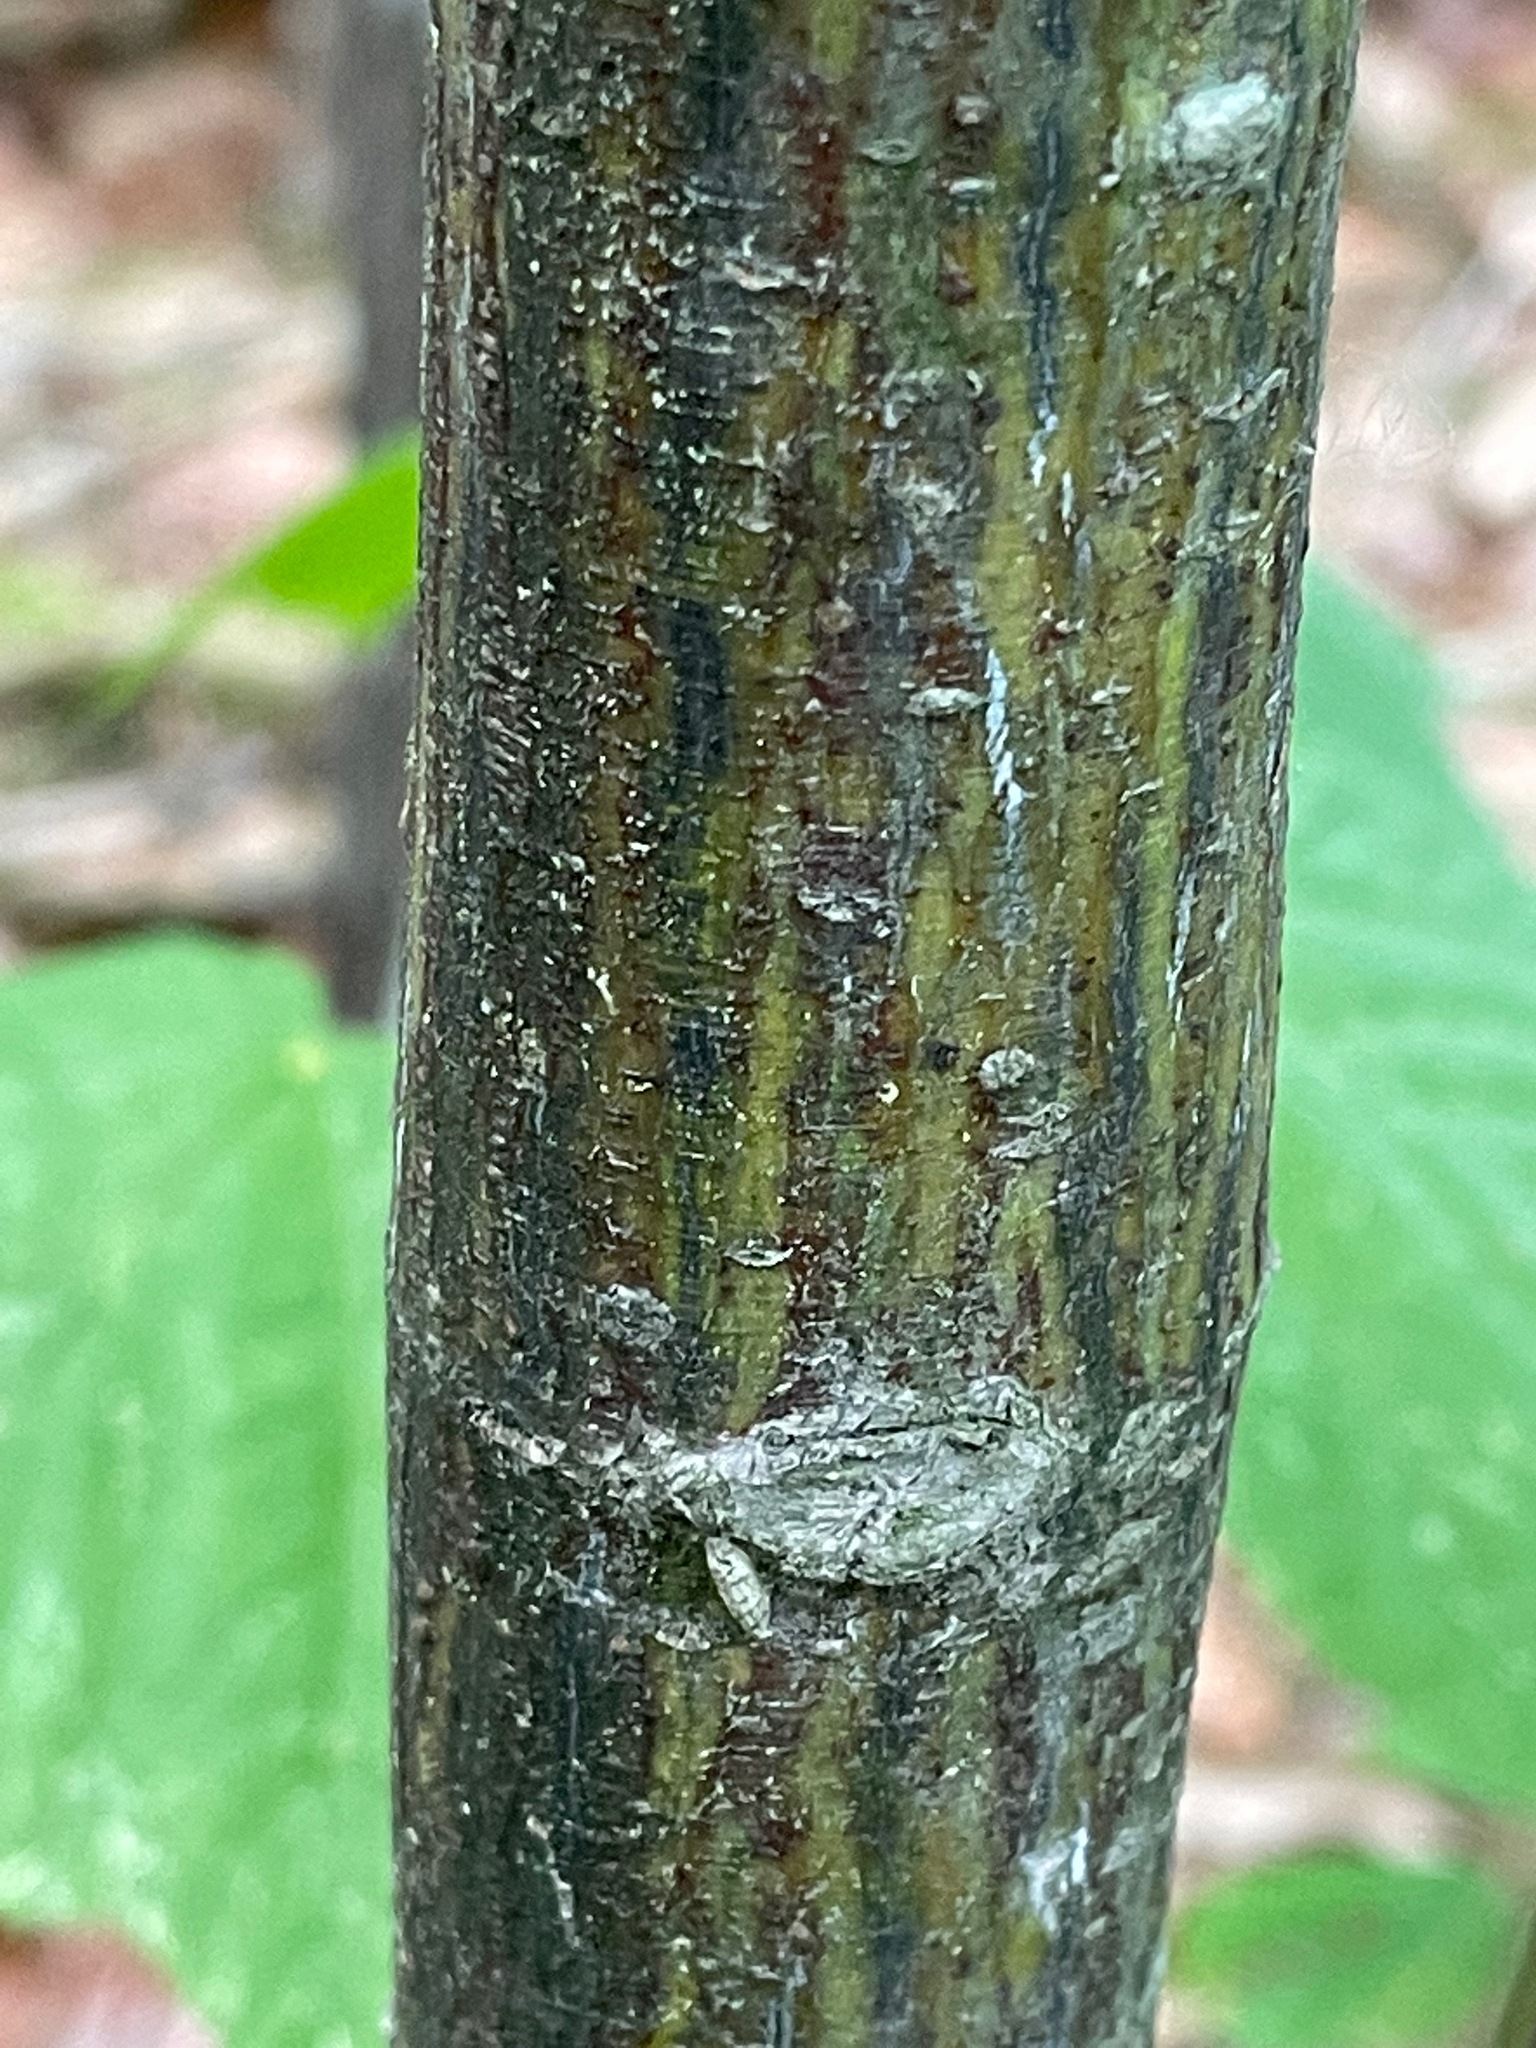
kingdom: Plantae
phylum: Tracheophyta
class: Magnoliopsida
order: Sapindales
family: Sapindaceae
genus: Acer
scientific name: Acer pensylvanicum
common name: Moosewood
